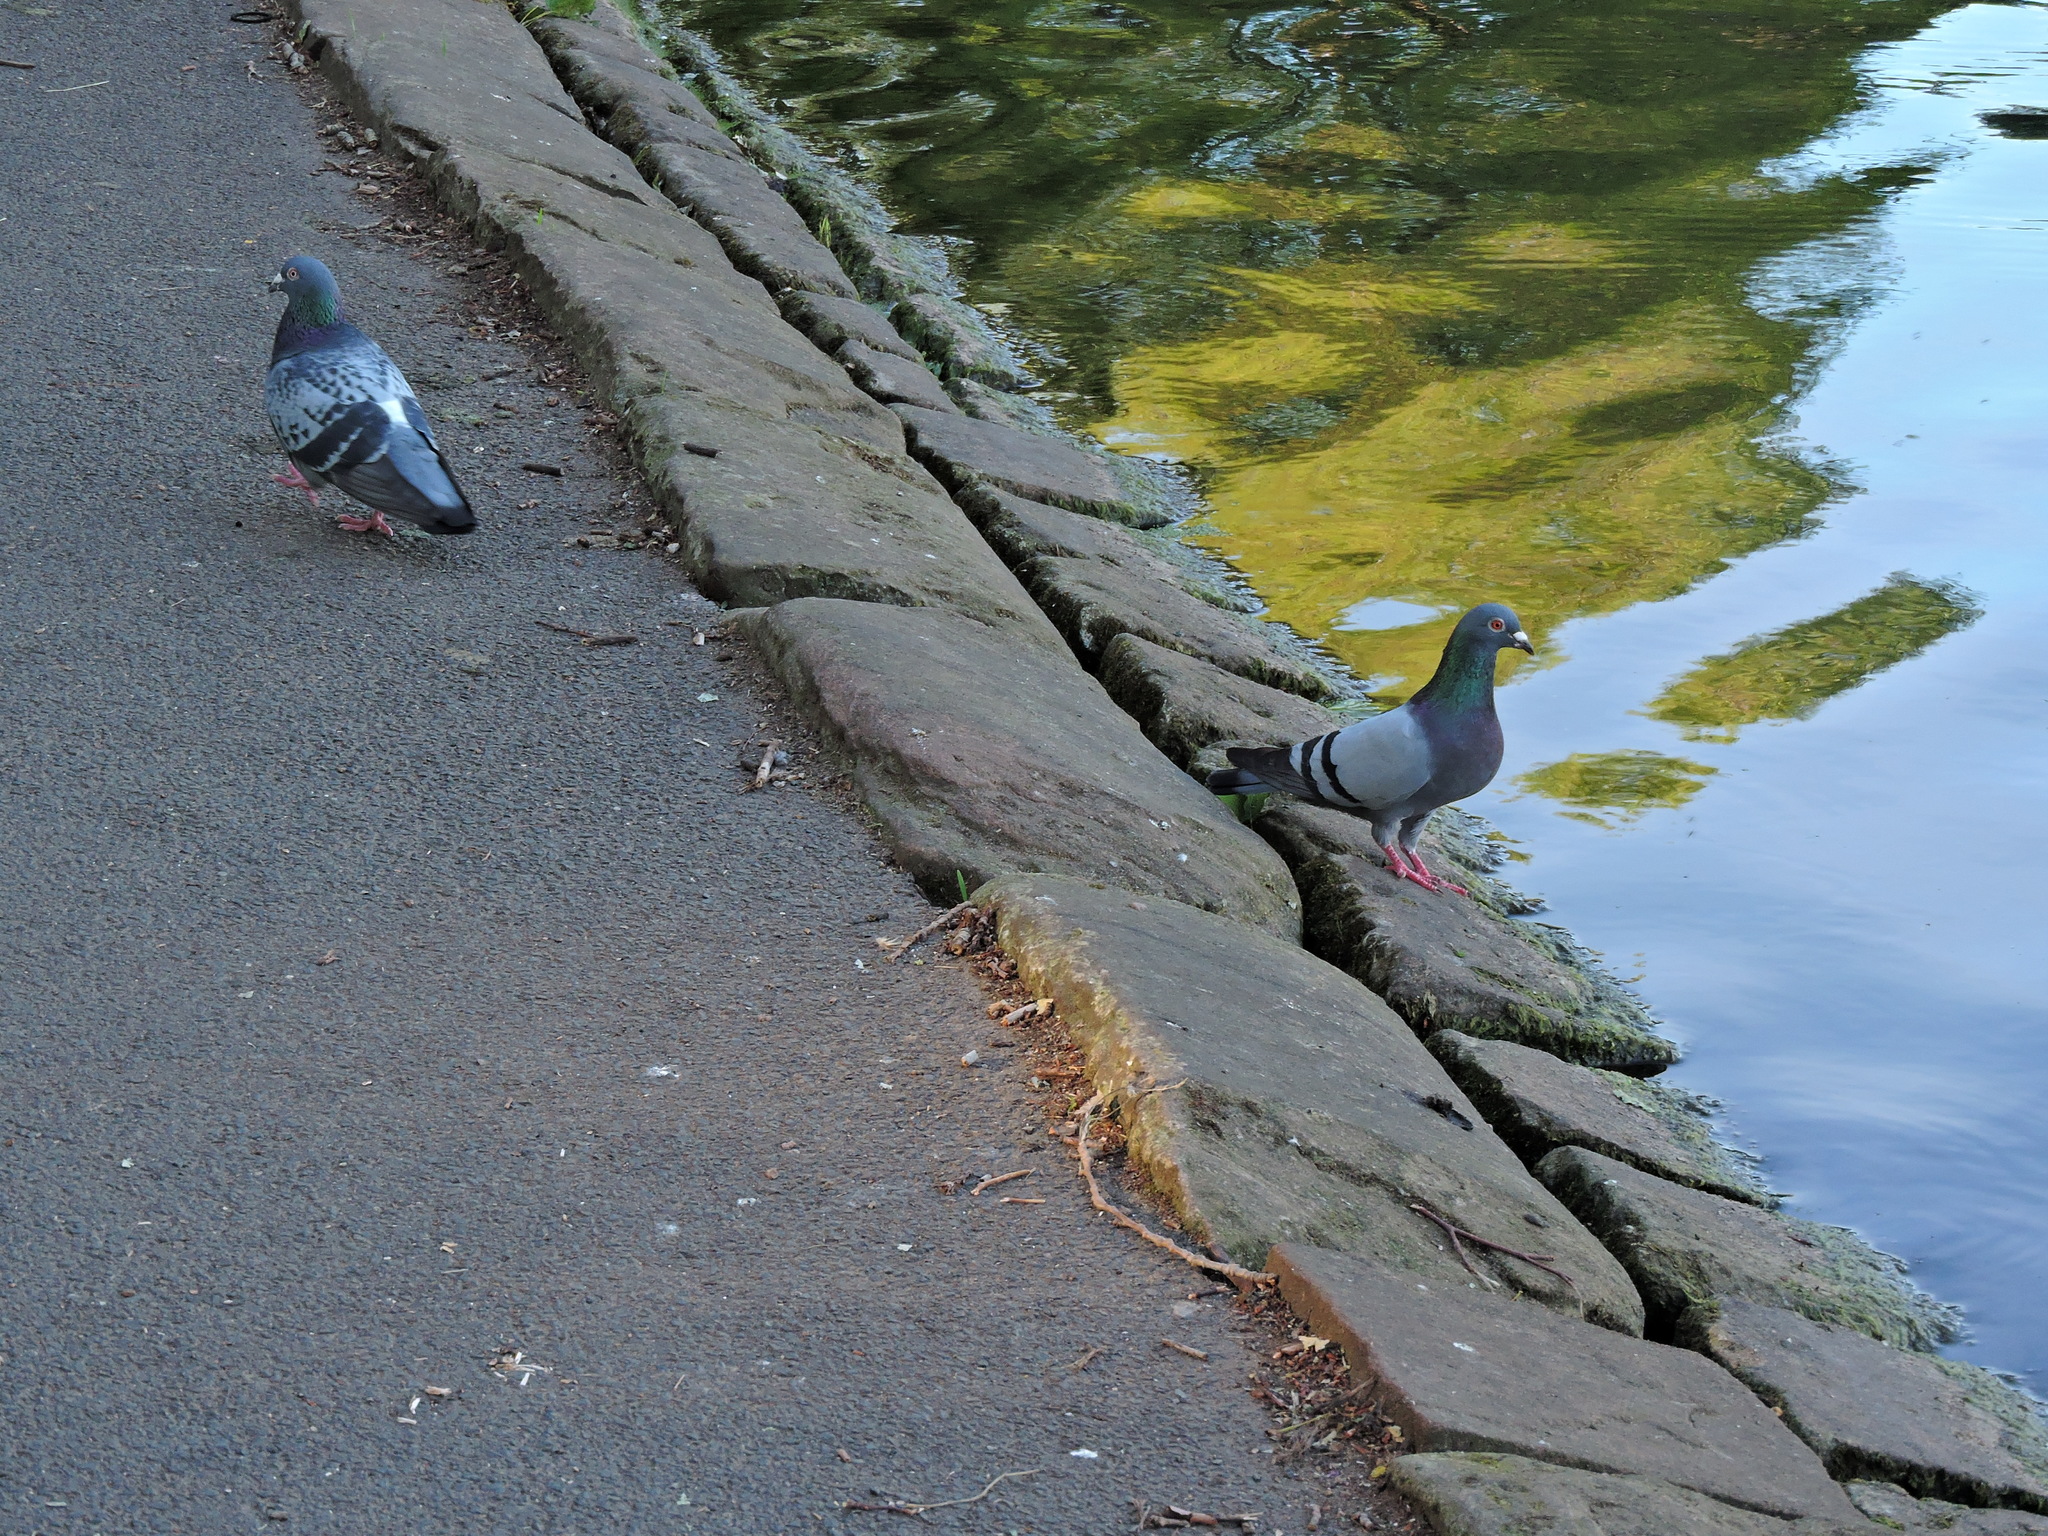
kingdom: Animalia
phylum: Chordata
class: Aves
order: Columbiformes
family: Columbidae
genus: Columba
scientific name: Columba livia
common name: Rock pigeon
